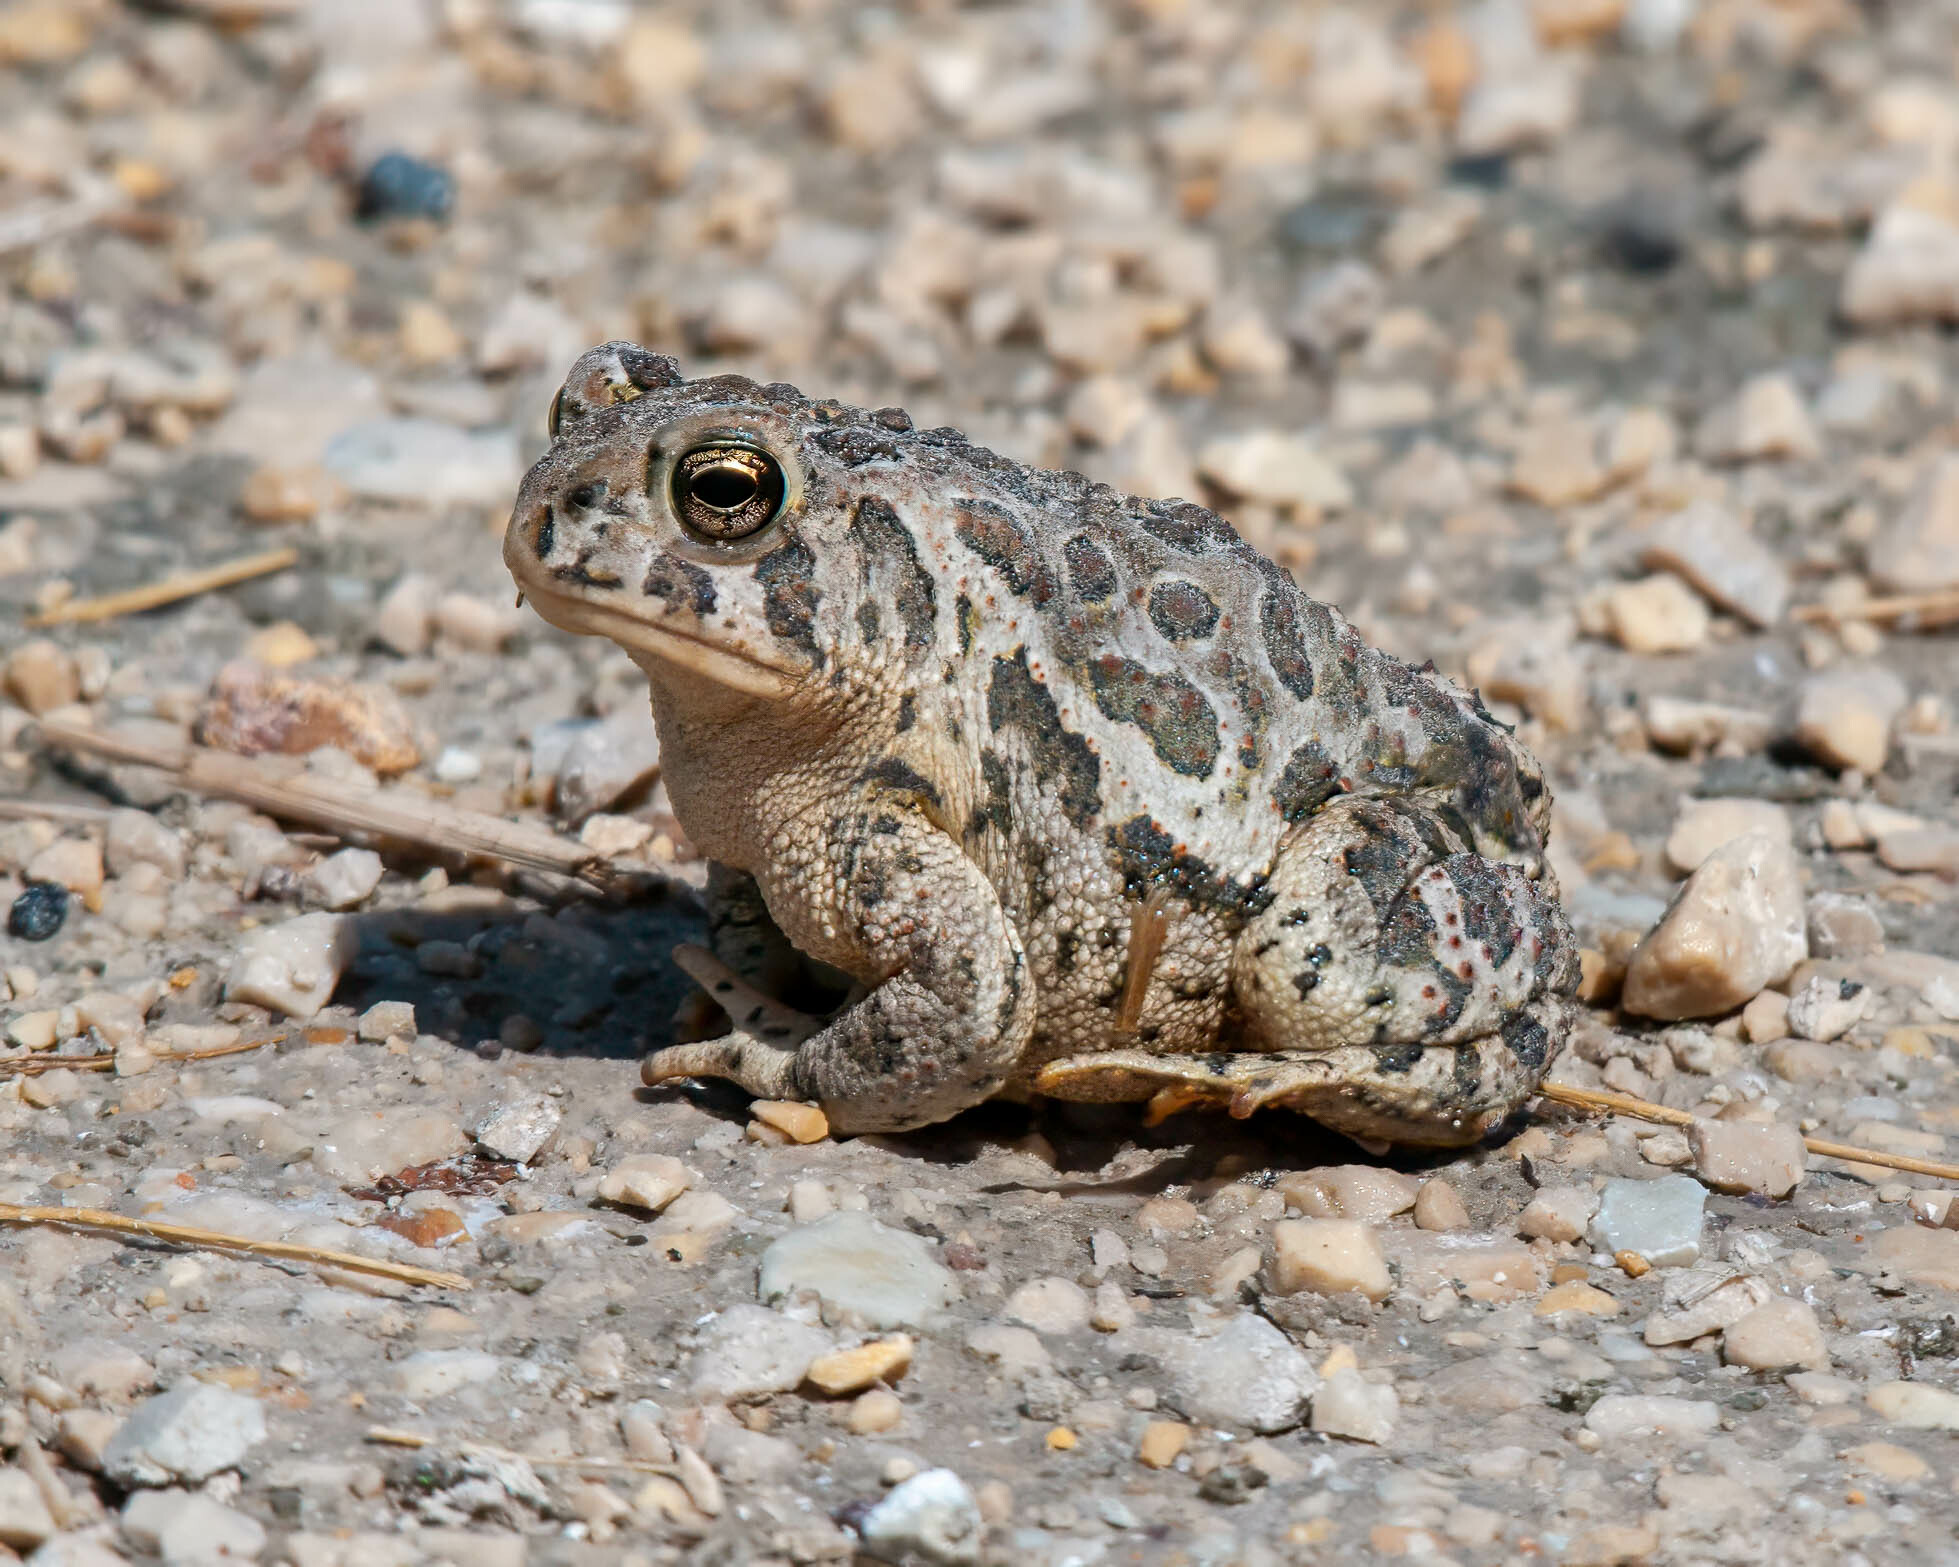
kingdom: Animalia
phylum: Chordata
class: Amphibia
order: Anura
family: Bufonidae
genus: Anaxyrus
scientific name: Anaxyrus hemiophrys
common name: Canadian toad
